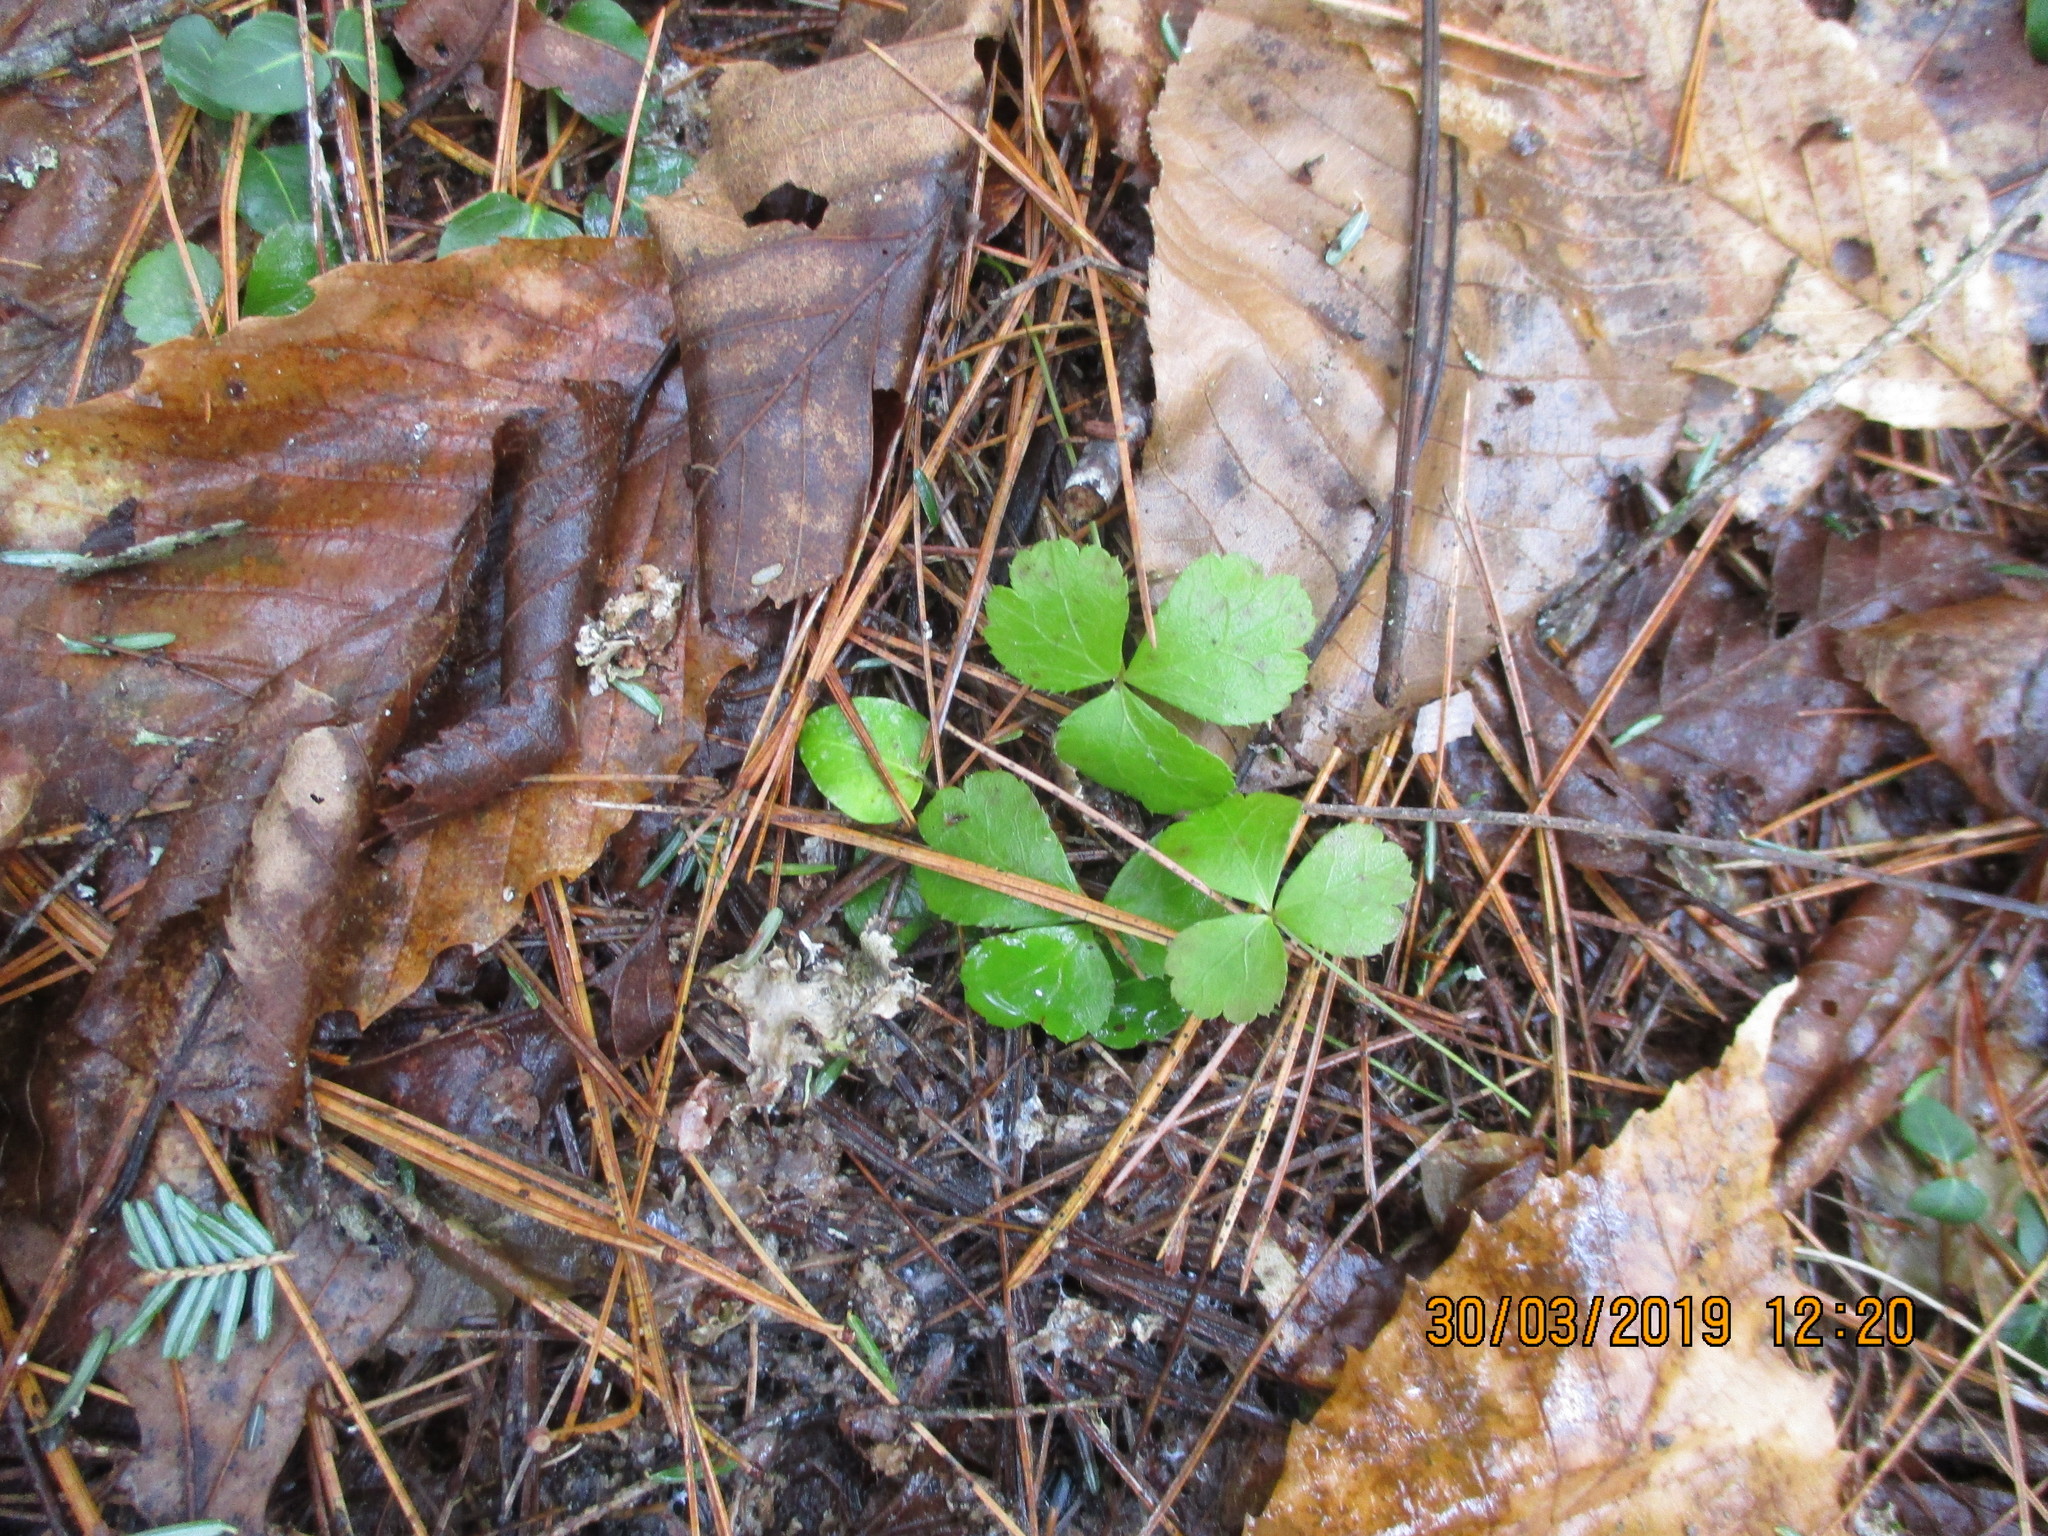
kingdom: Plantae
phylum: Tracheophyta
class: Magnoliopsida
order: Ranunculales
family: Ranunculaceae
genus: Coptis
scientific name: Coptis trifolia
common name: Canker-root
